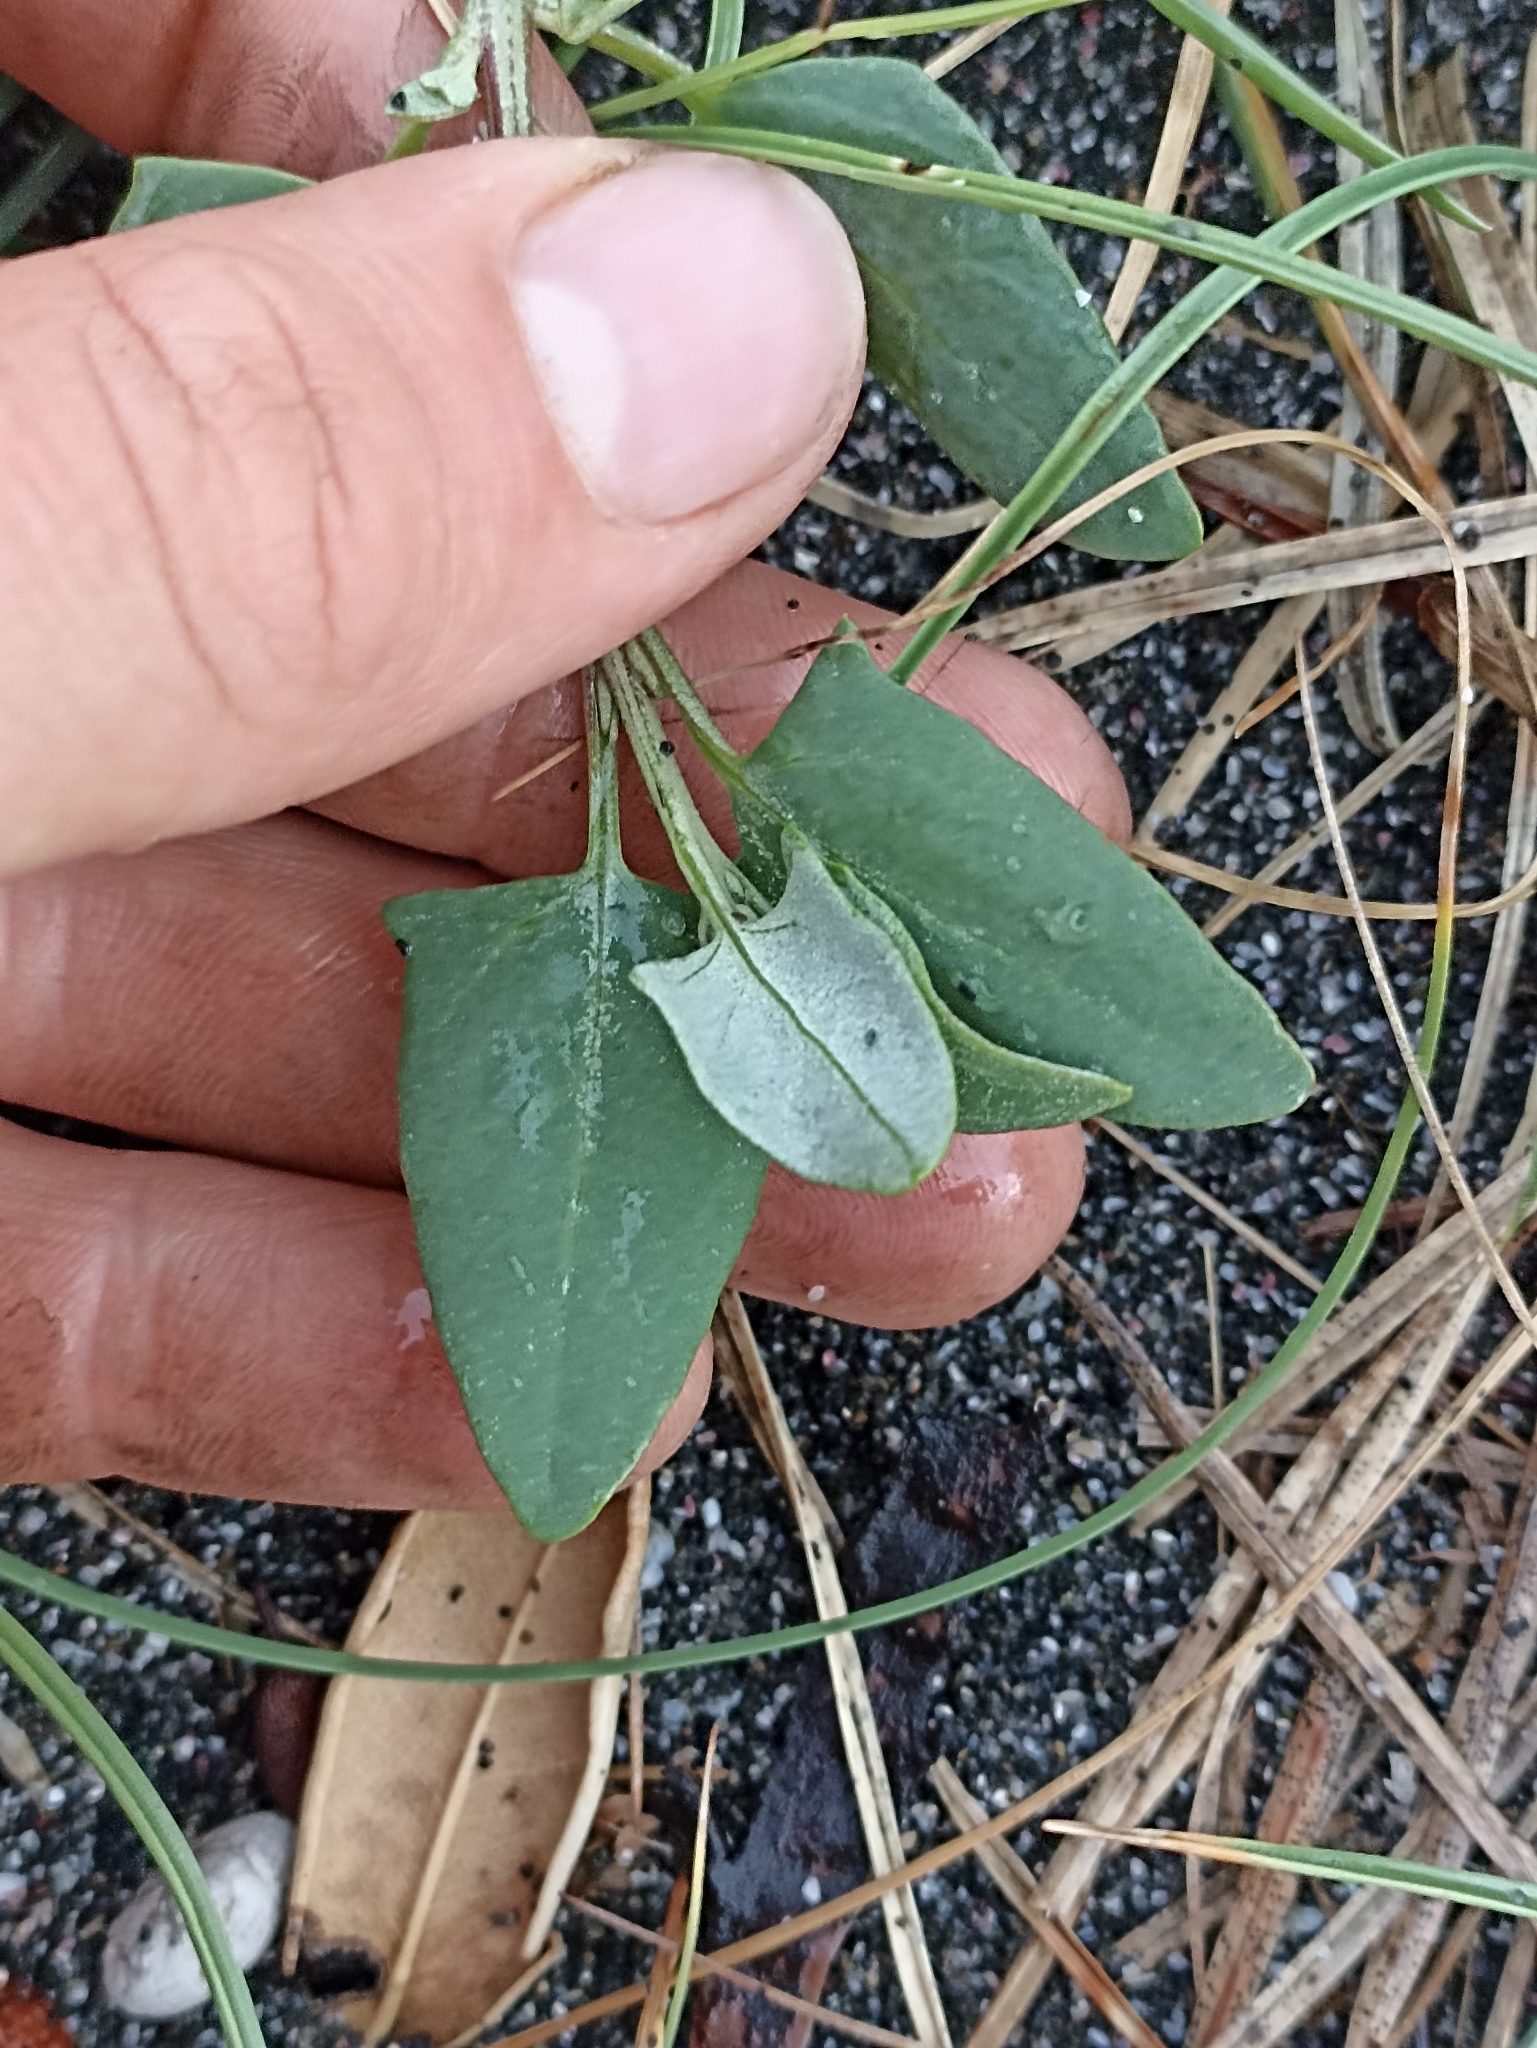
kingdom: Plantae
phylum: Tracheophyta
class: Magnoliopsida
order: Caryophyllales
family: Amaranthaceae
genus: Atriplex
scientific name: Atriplex prostrata
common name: Spear-leaved orache
